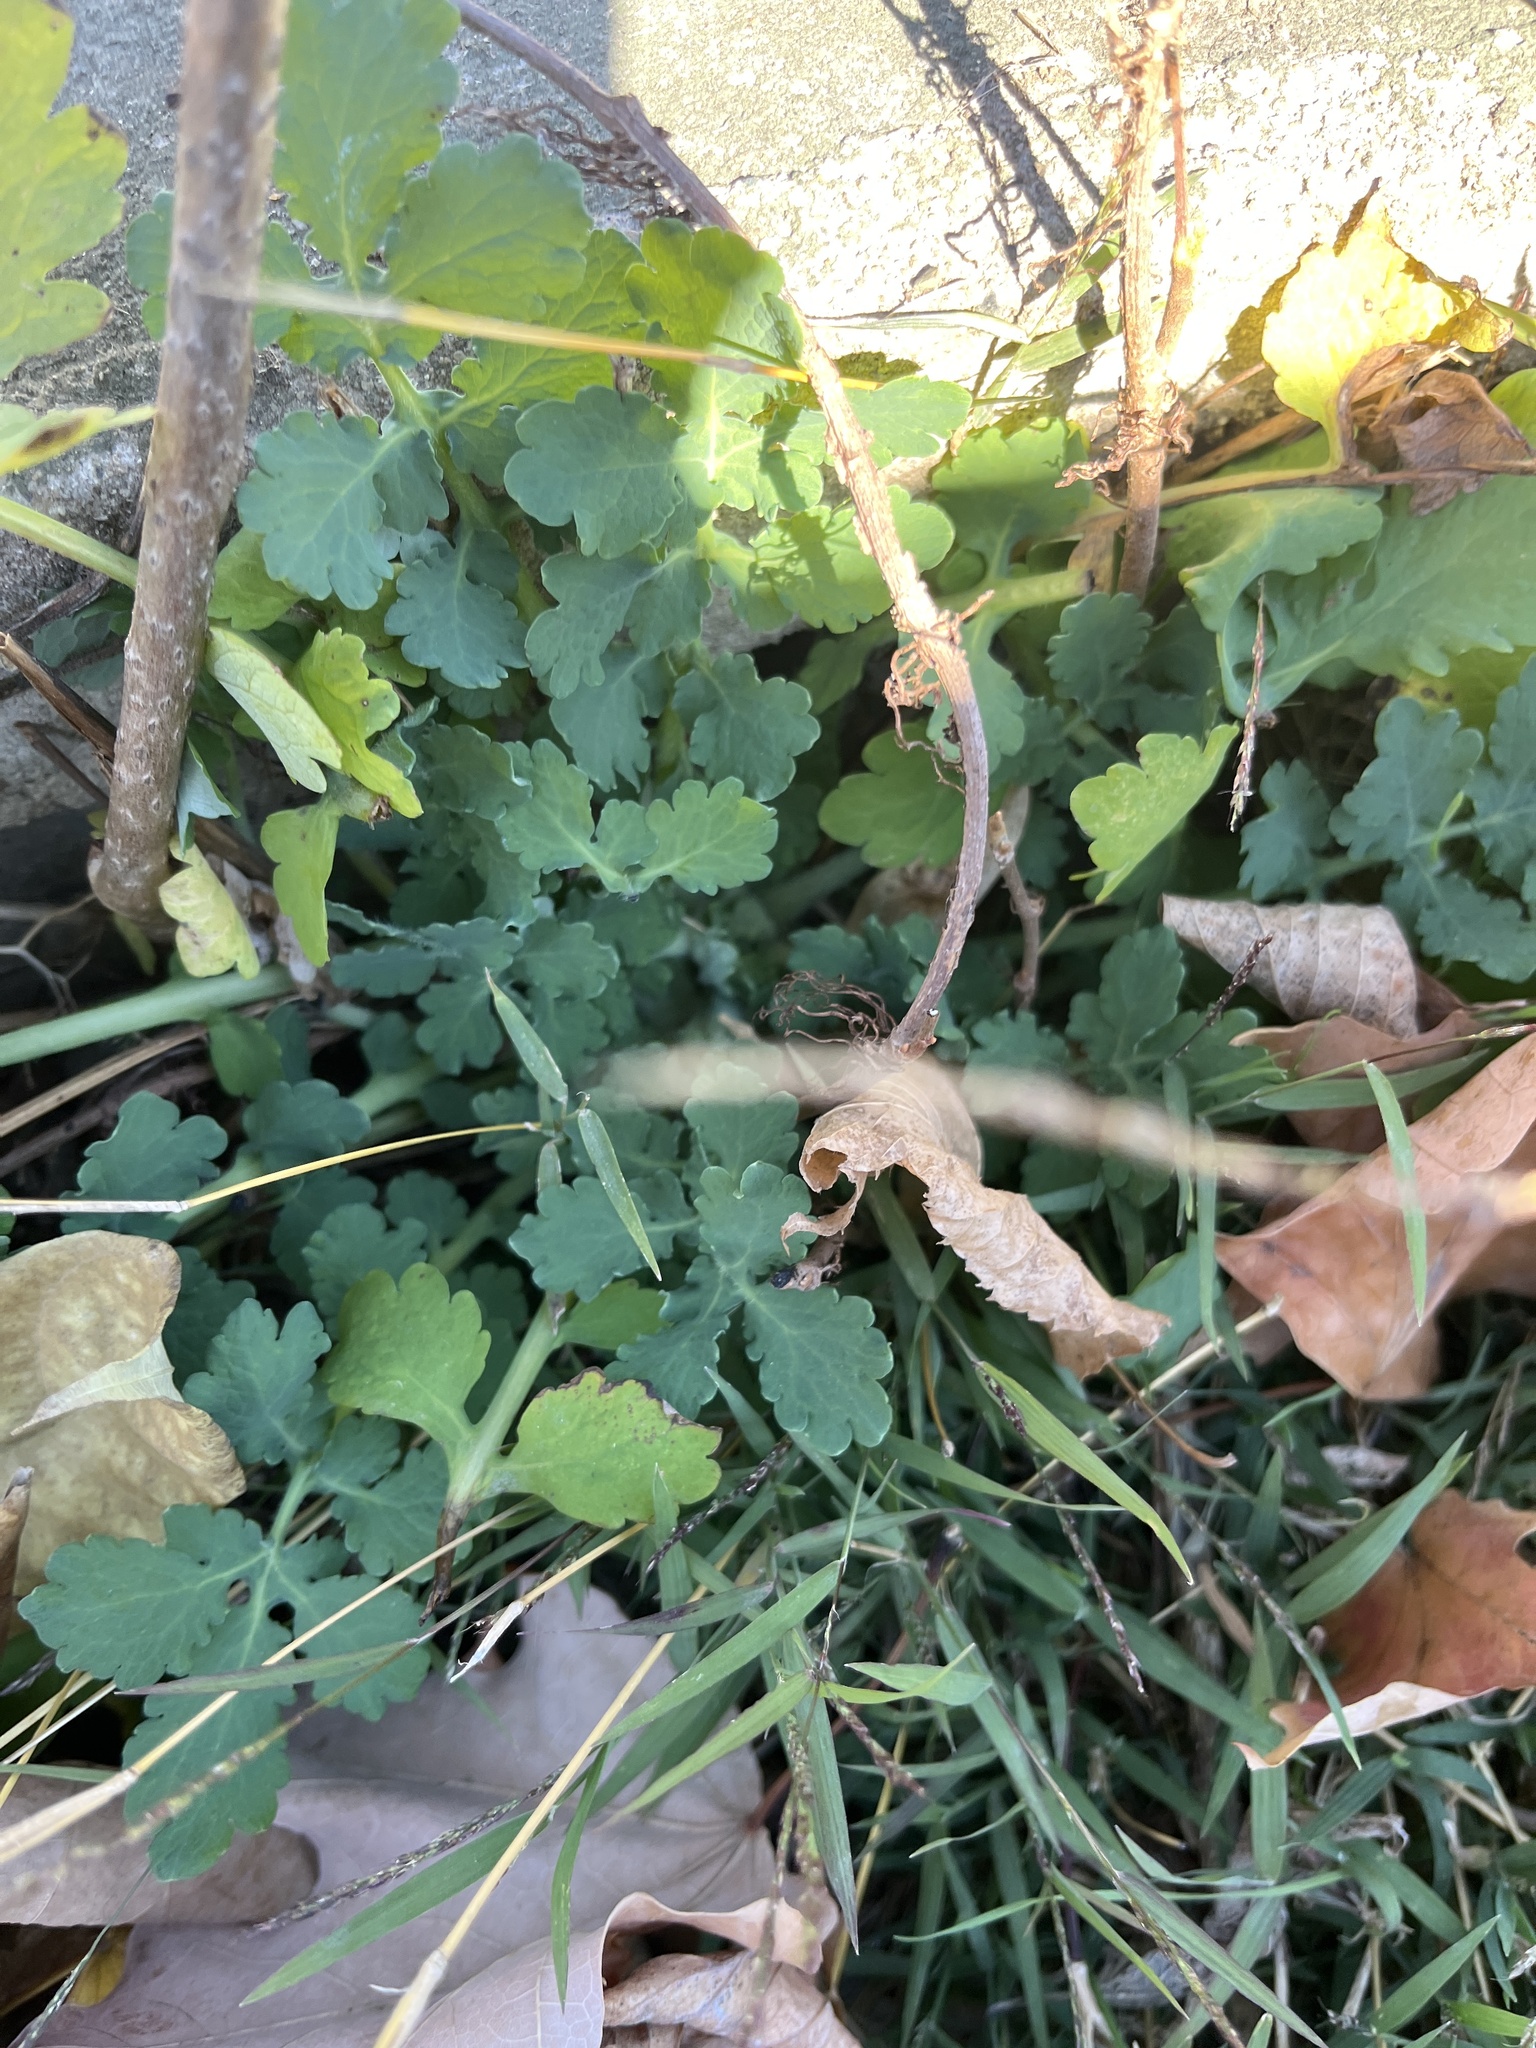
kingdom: Plantae
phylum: Tracheophyta
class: Magnoliopsida
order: Ranunculales
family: Papaveraceae
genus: Chelidonium
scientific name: Chelidonium majus
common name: Greater celandine
